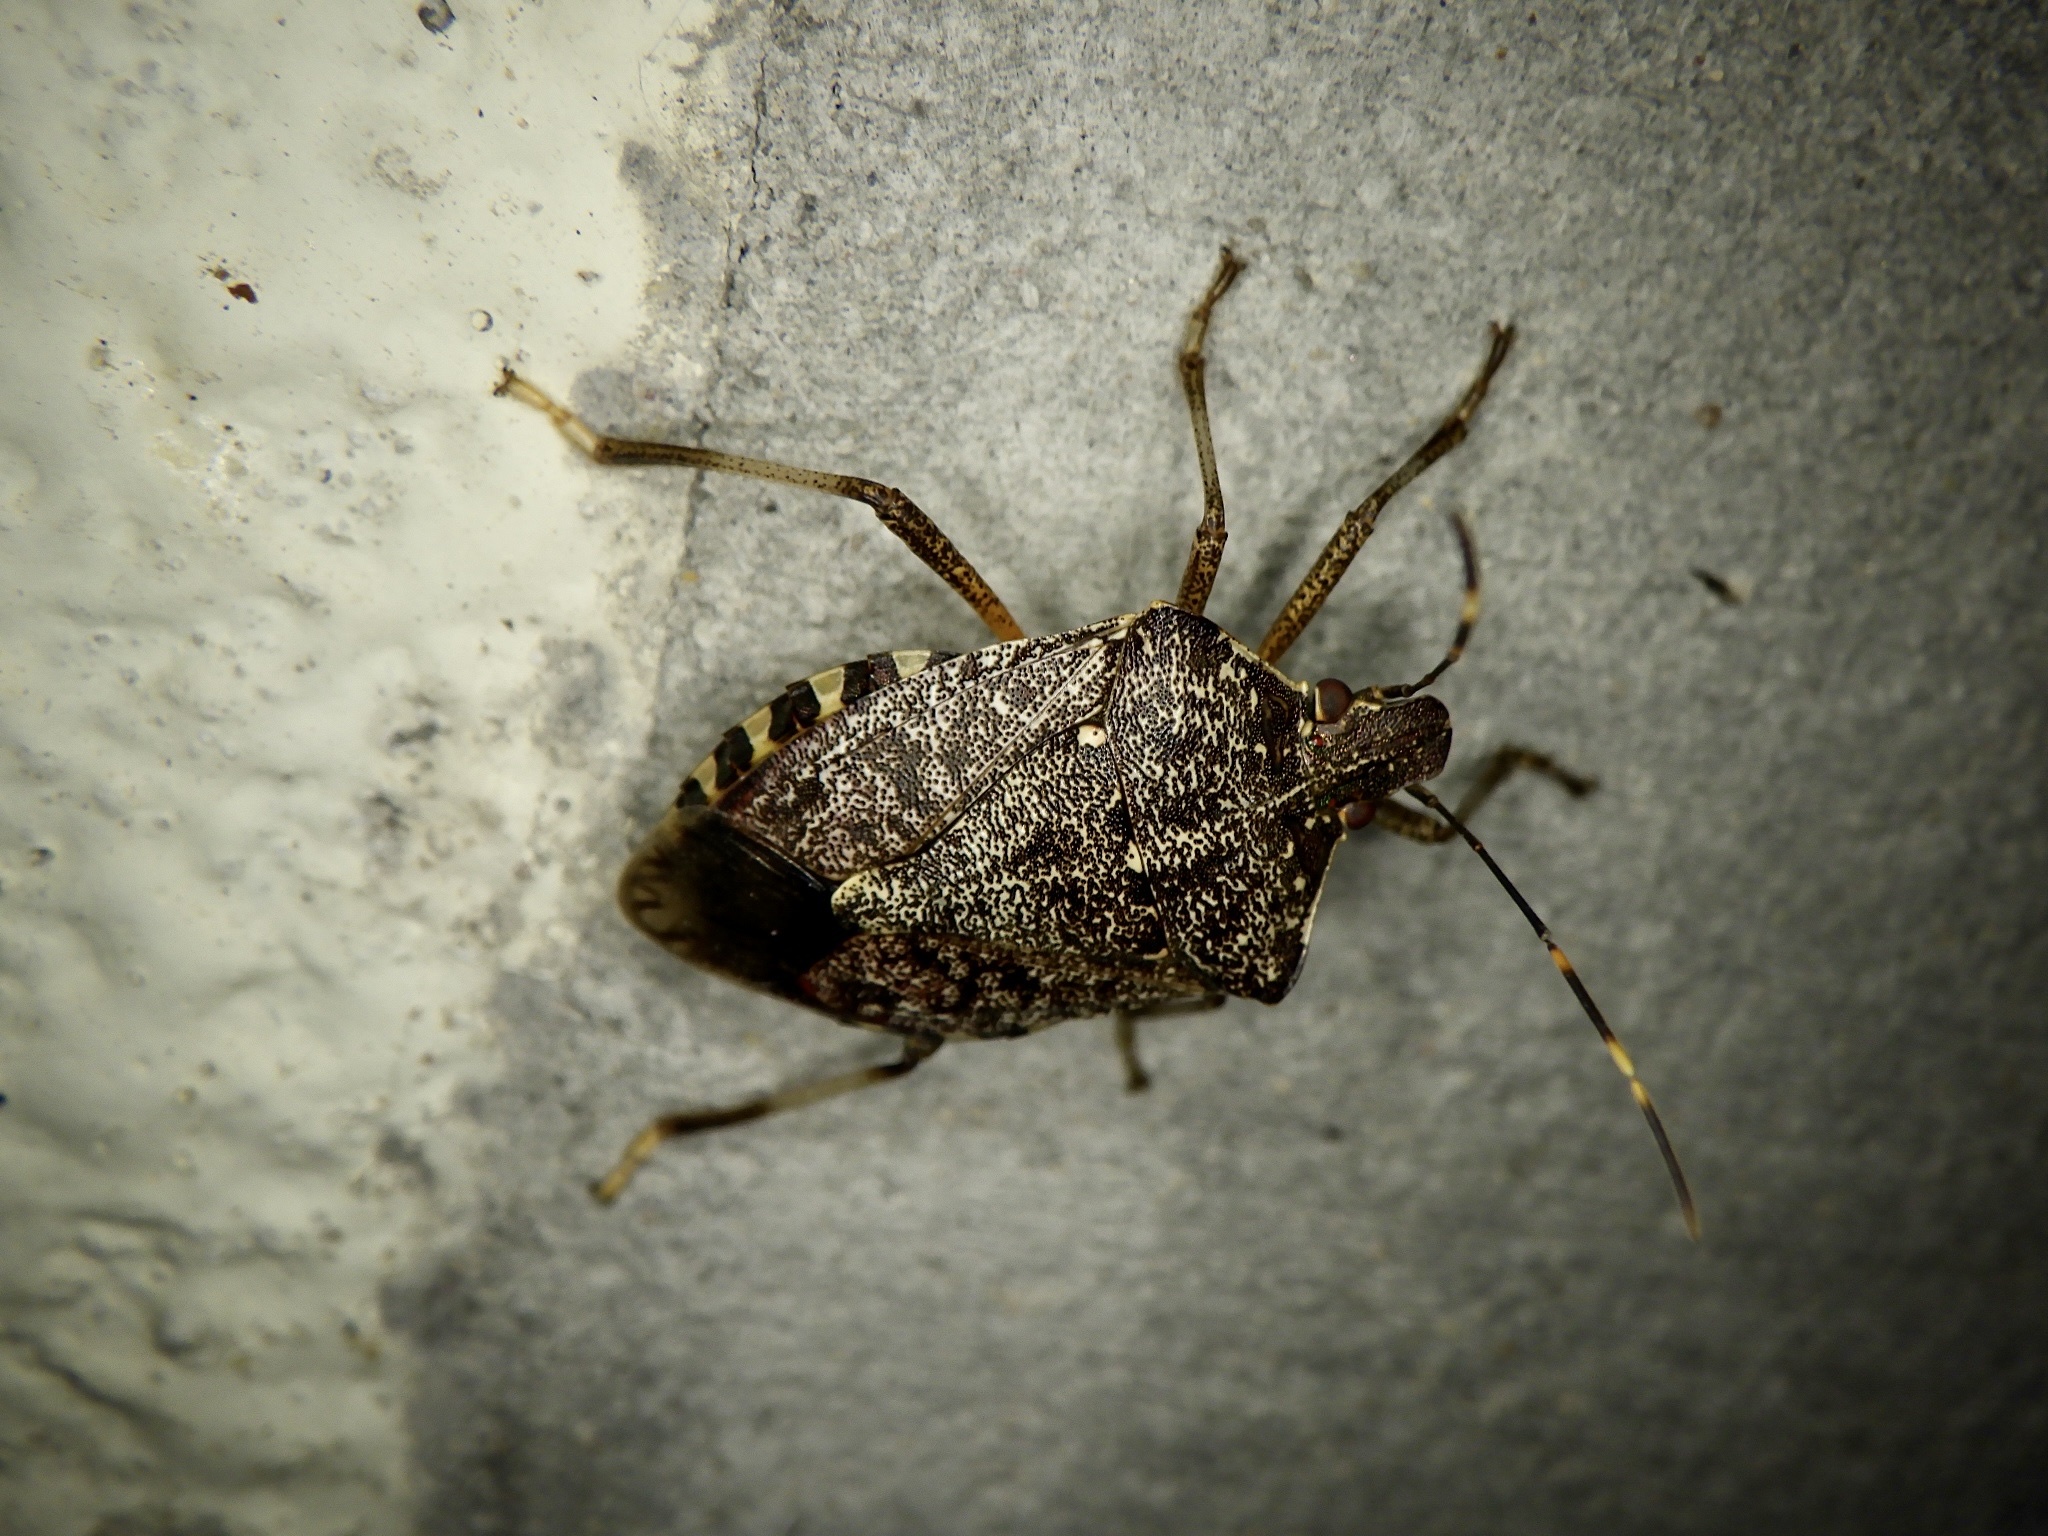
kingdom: Animalia
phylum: Arthropoda
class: Insecta
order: Hemiptera
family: Pentatomidae
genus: Halyomorpha
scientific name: Halyomorpha halys
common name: Brown marmorated stink bug
